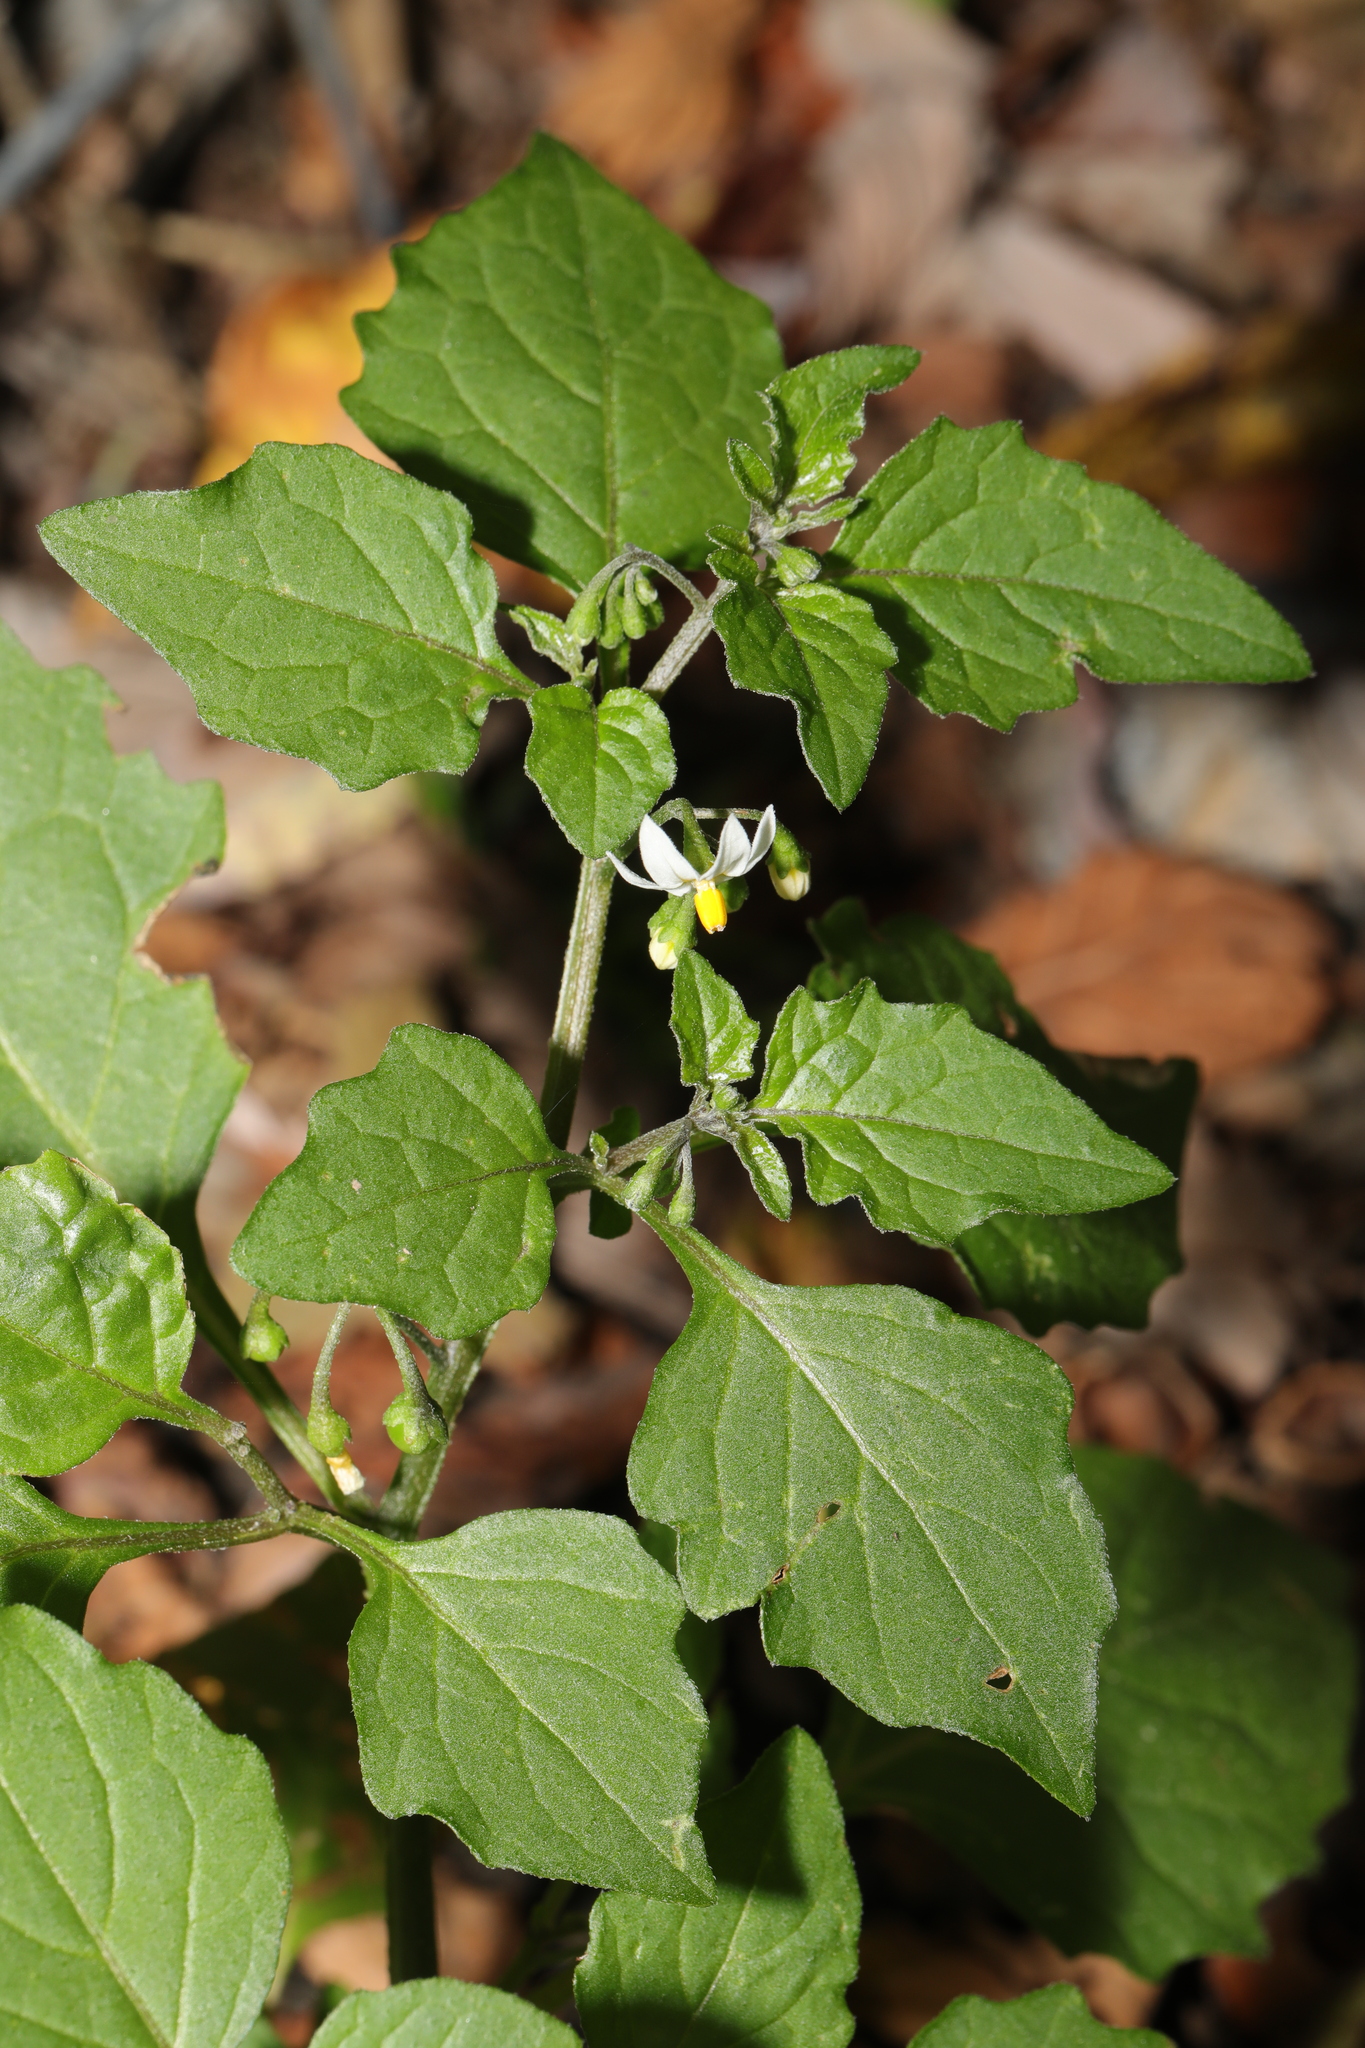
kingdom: Plantae
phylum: Tracheophyta
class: Magnoliopsida
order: Solanales
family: Solanaceae
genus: Solanum
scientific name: Solanum nigrum
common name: Black nightshade
